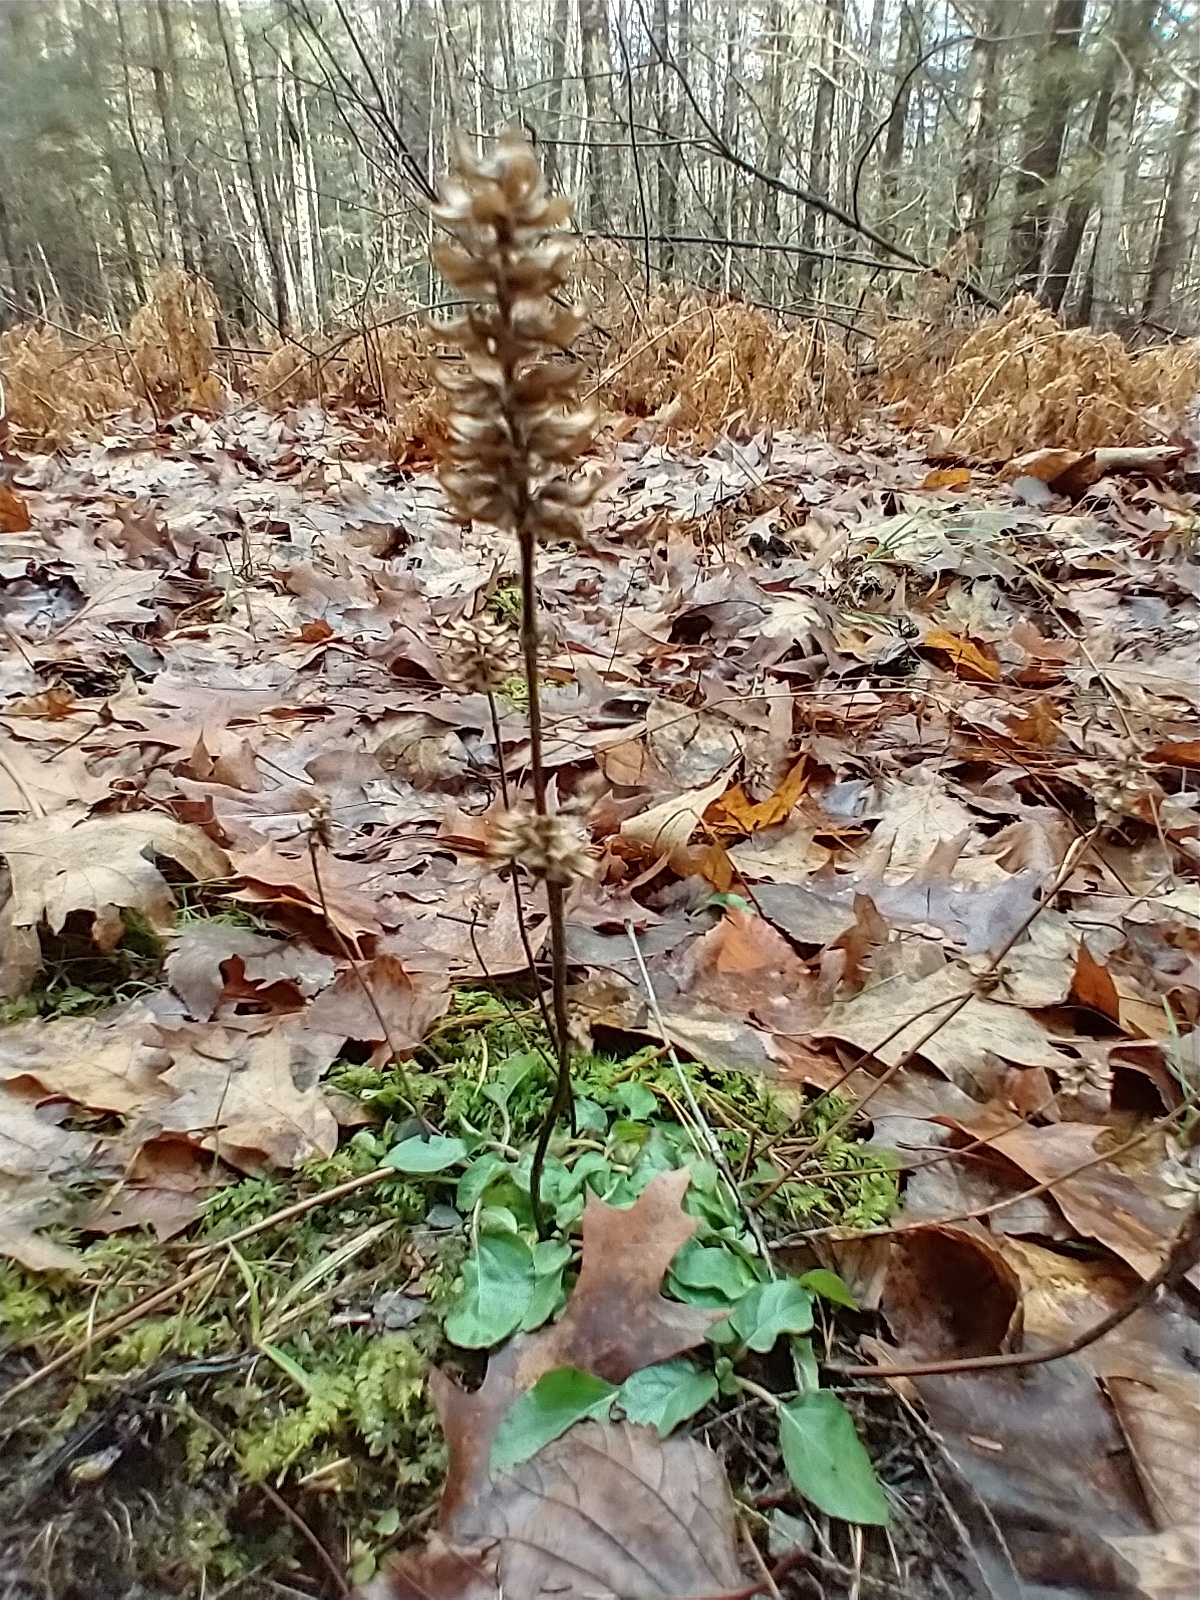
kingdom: Plantae
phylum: Tracheophyta
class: Magnoliopsida
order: Lamiales
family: Lamiaceae
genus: Prunella
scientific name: Prunella vulgaris
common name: Heal-all
